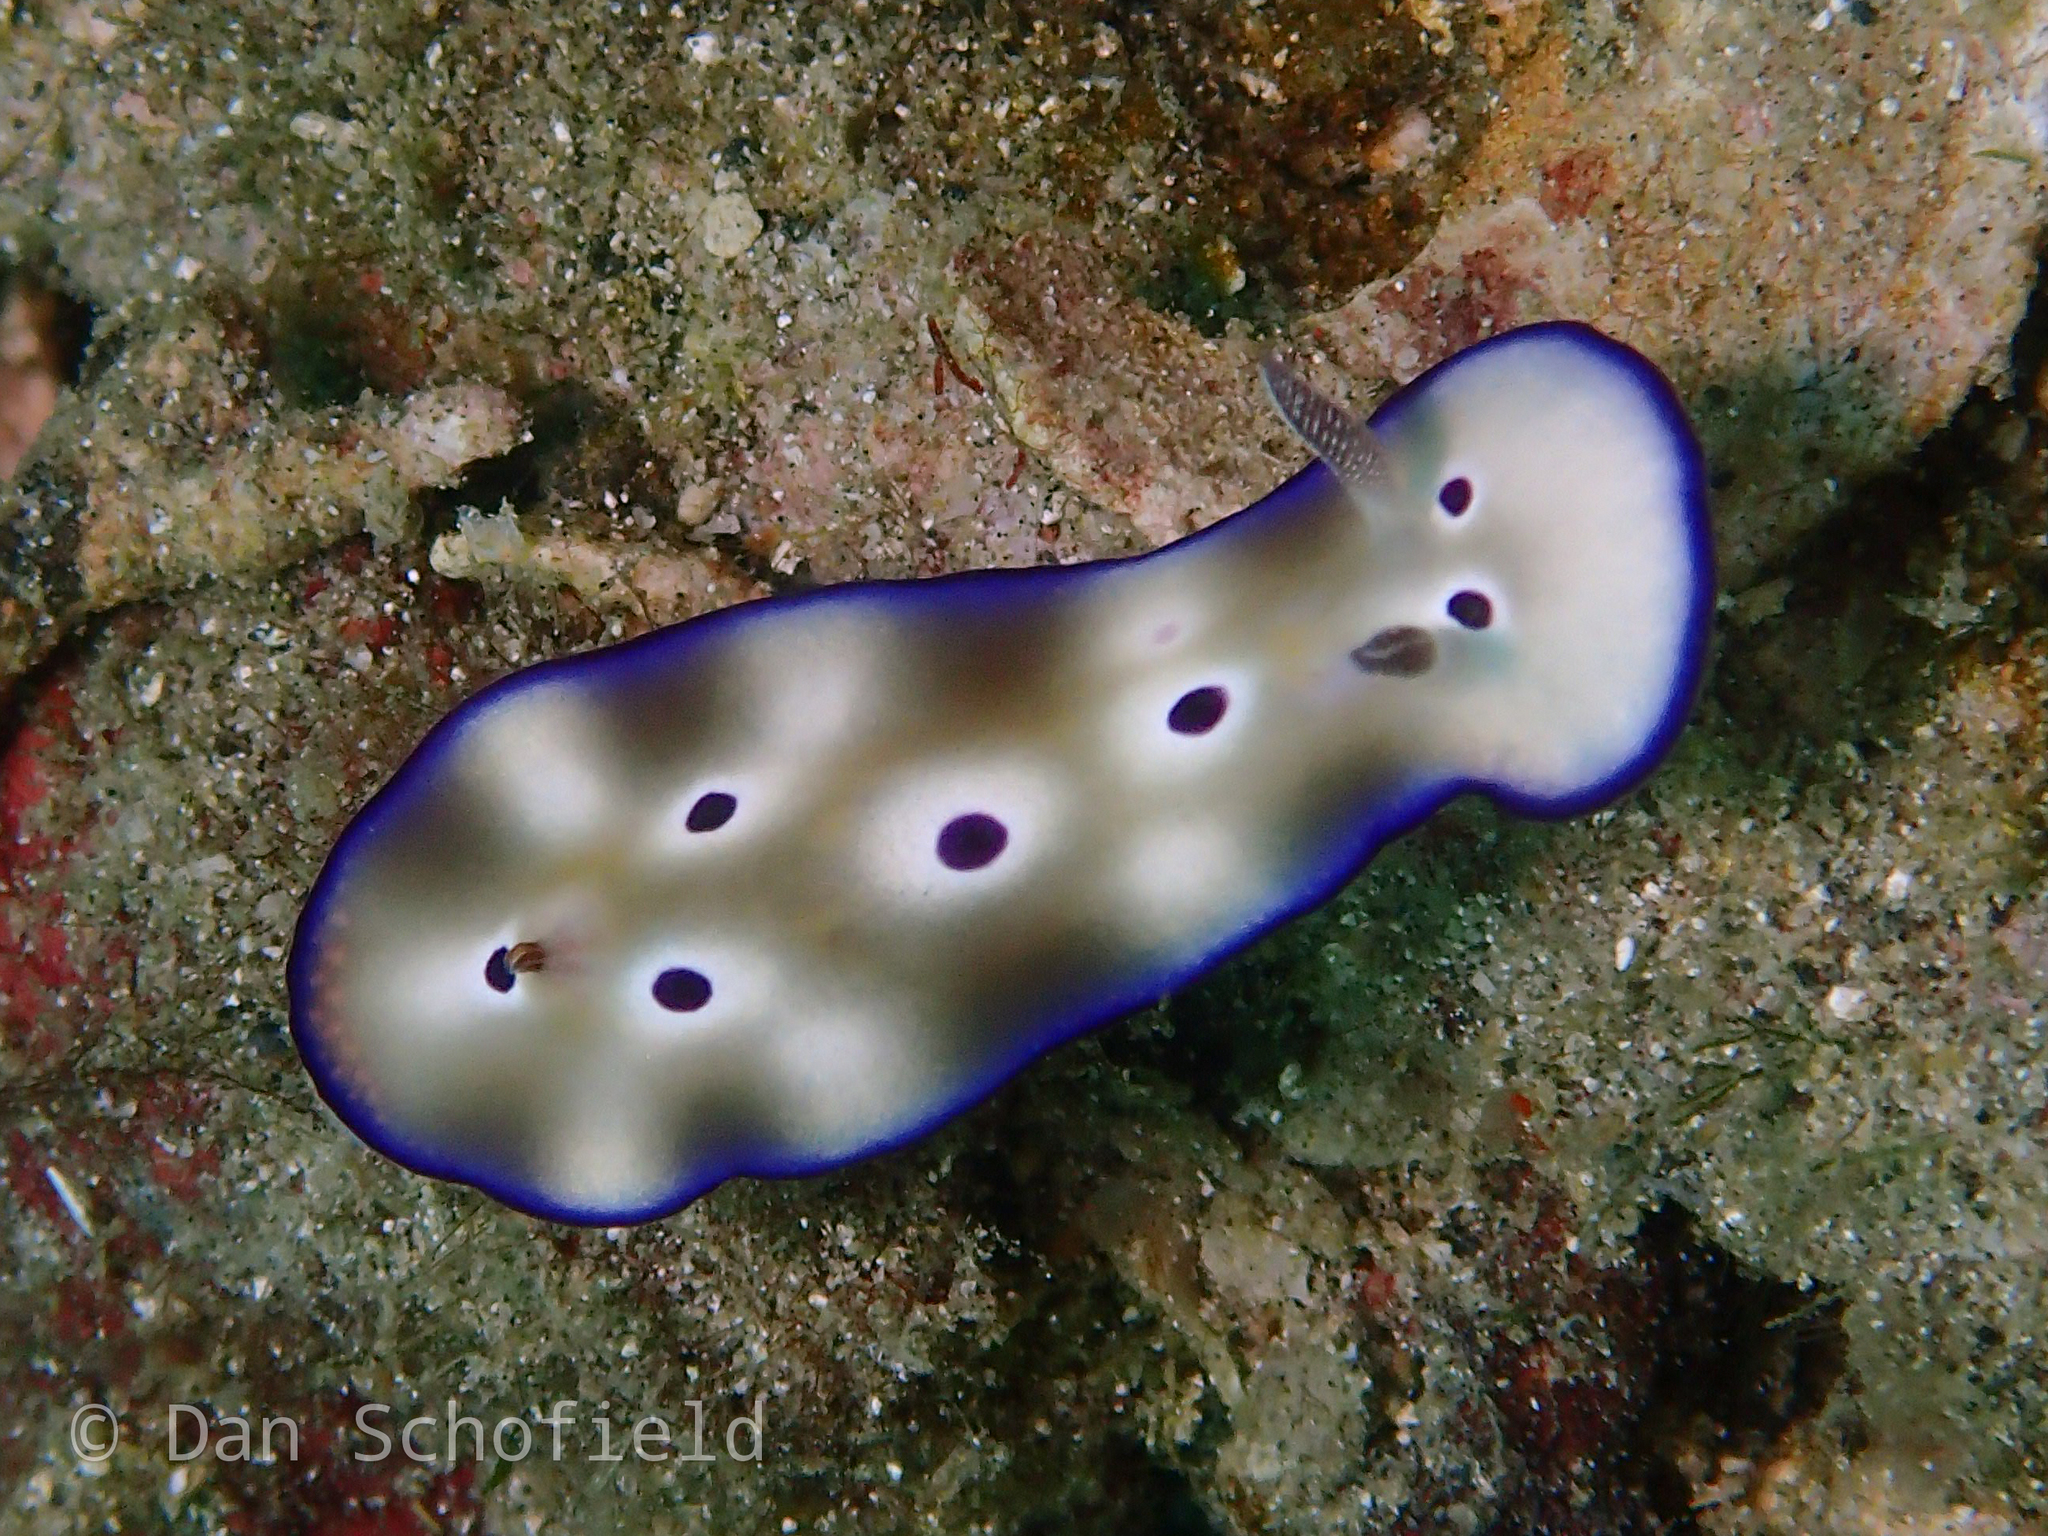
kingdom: Animalia
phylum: Mollusca
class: Gastropoda
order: Nudibranchia
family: Chromodorididae
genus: Hypselodoris
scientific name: Hypselodoris tryoni
